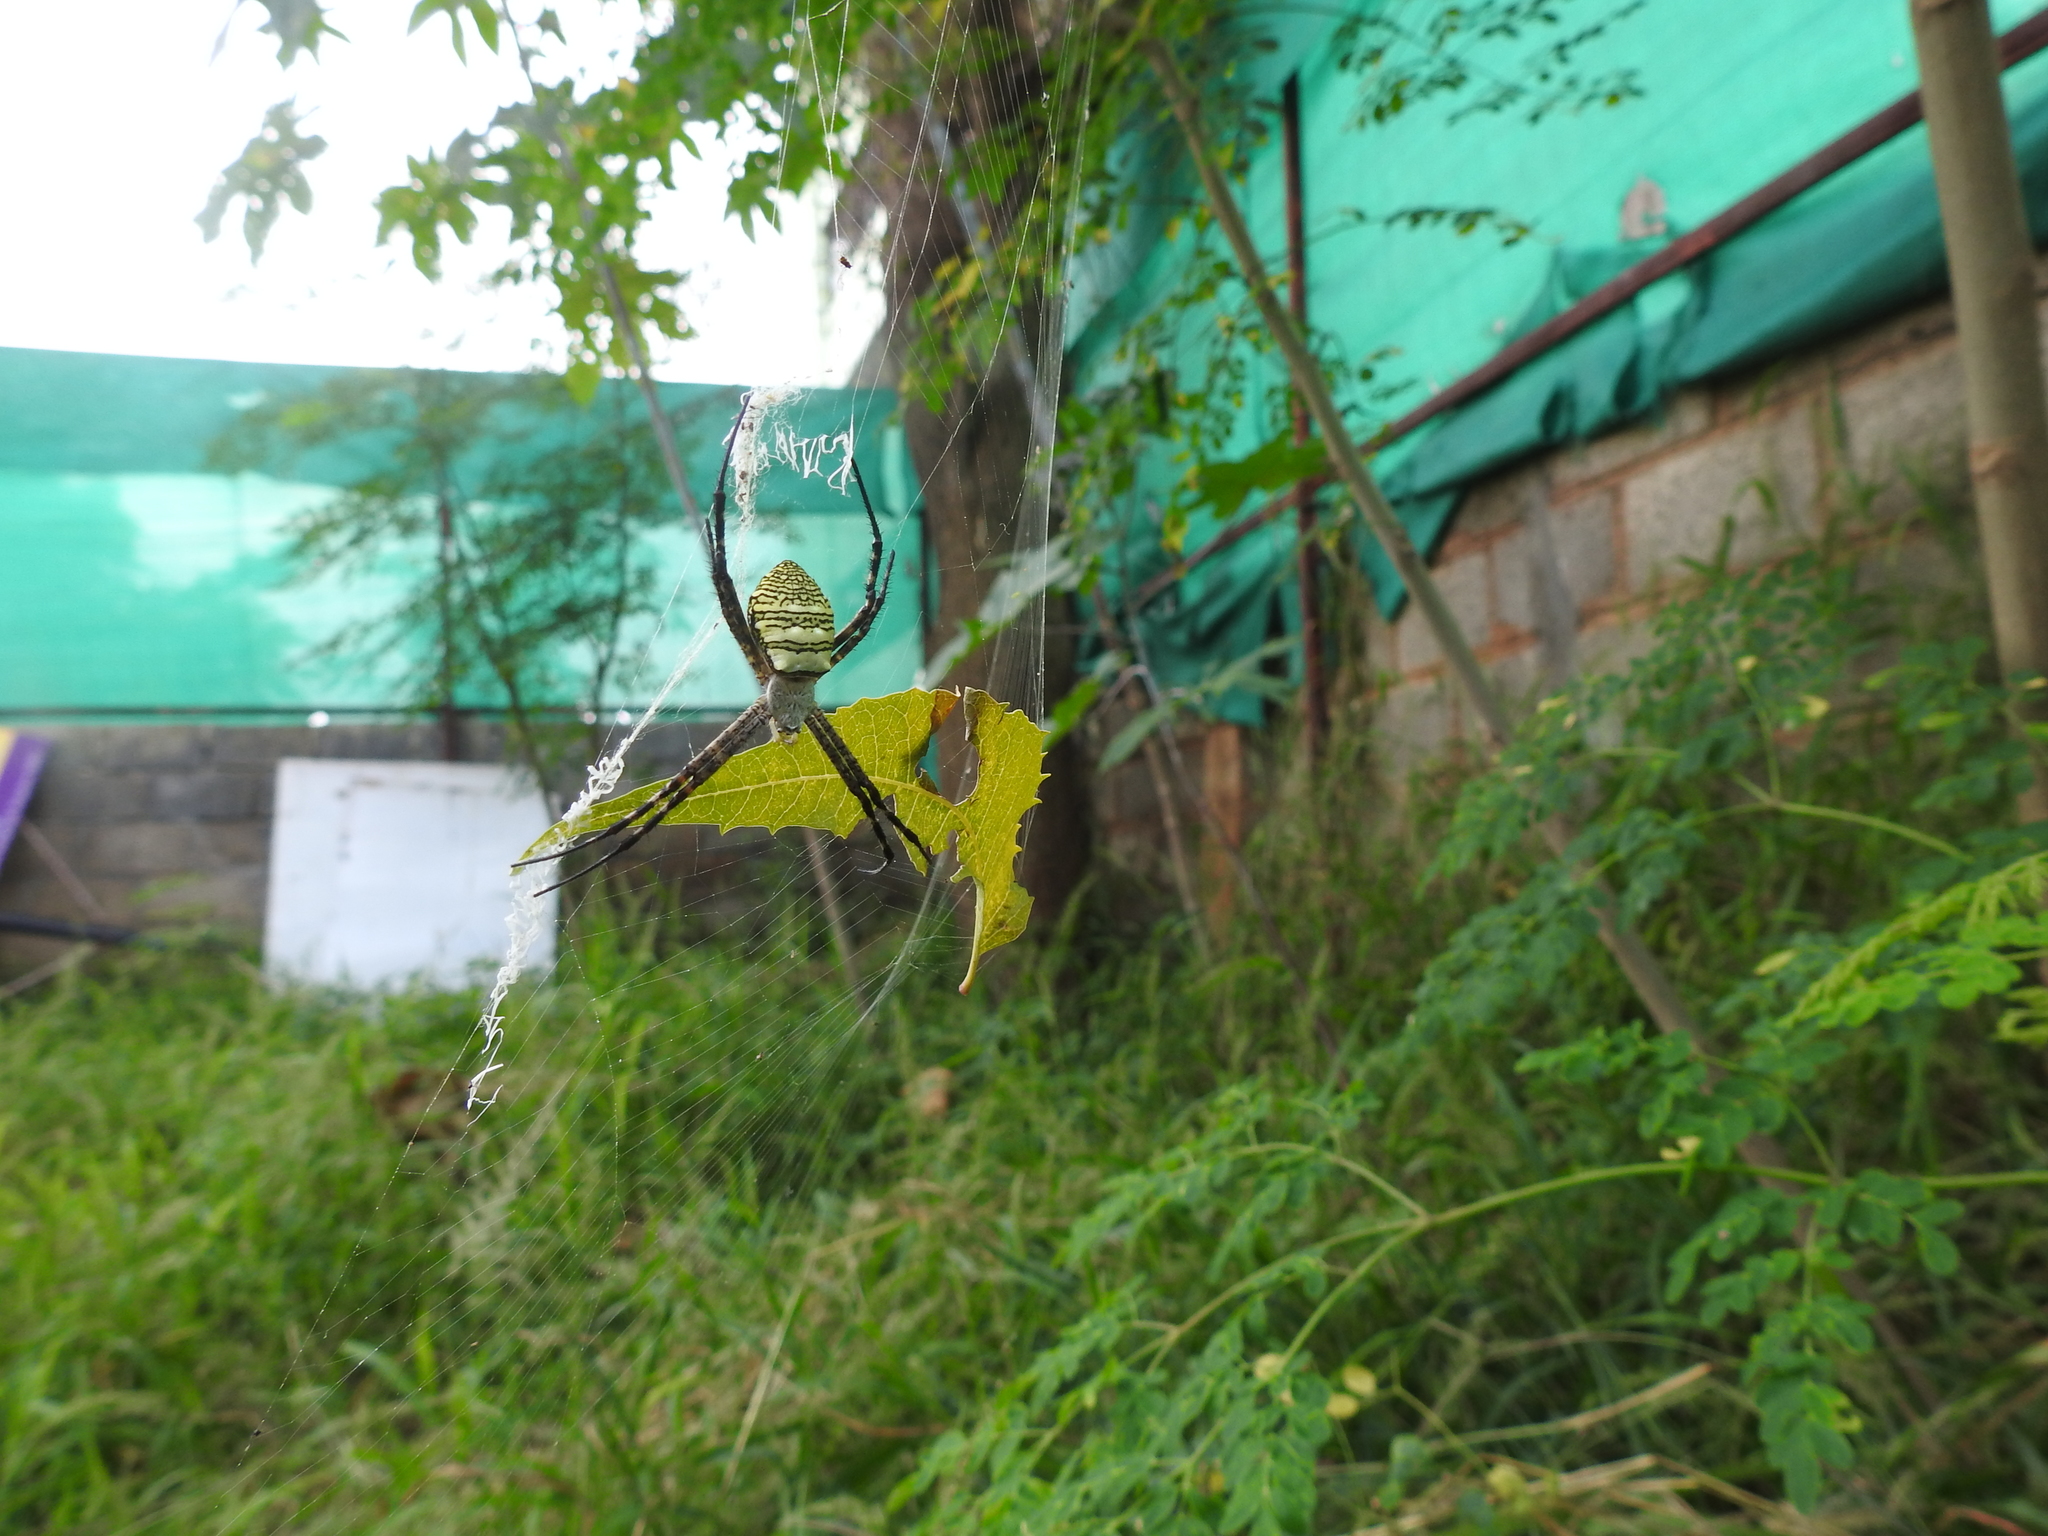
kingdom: Animalia
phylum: Arthropoda
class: Arachnida
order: Araneae
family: Araneidae
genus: Argiope
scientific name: Argiope aemula
